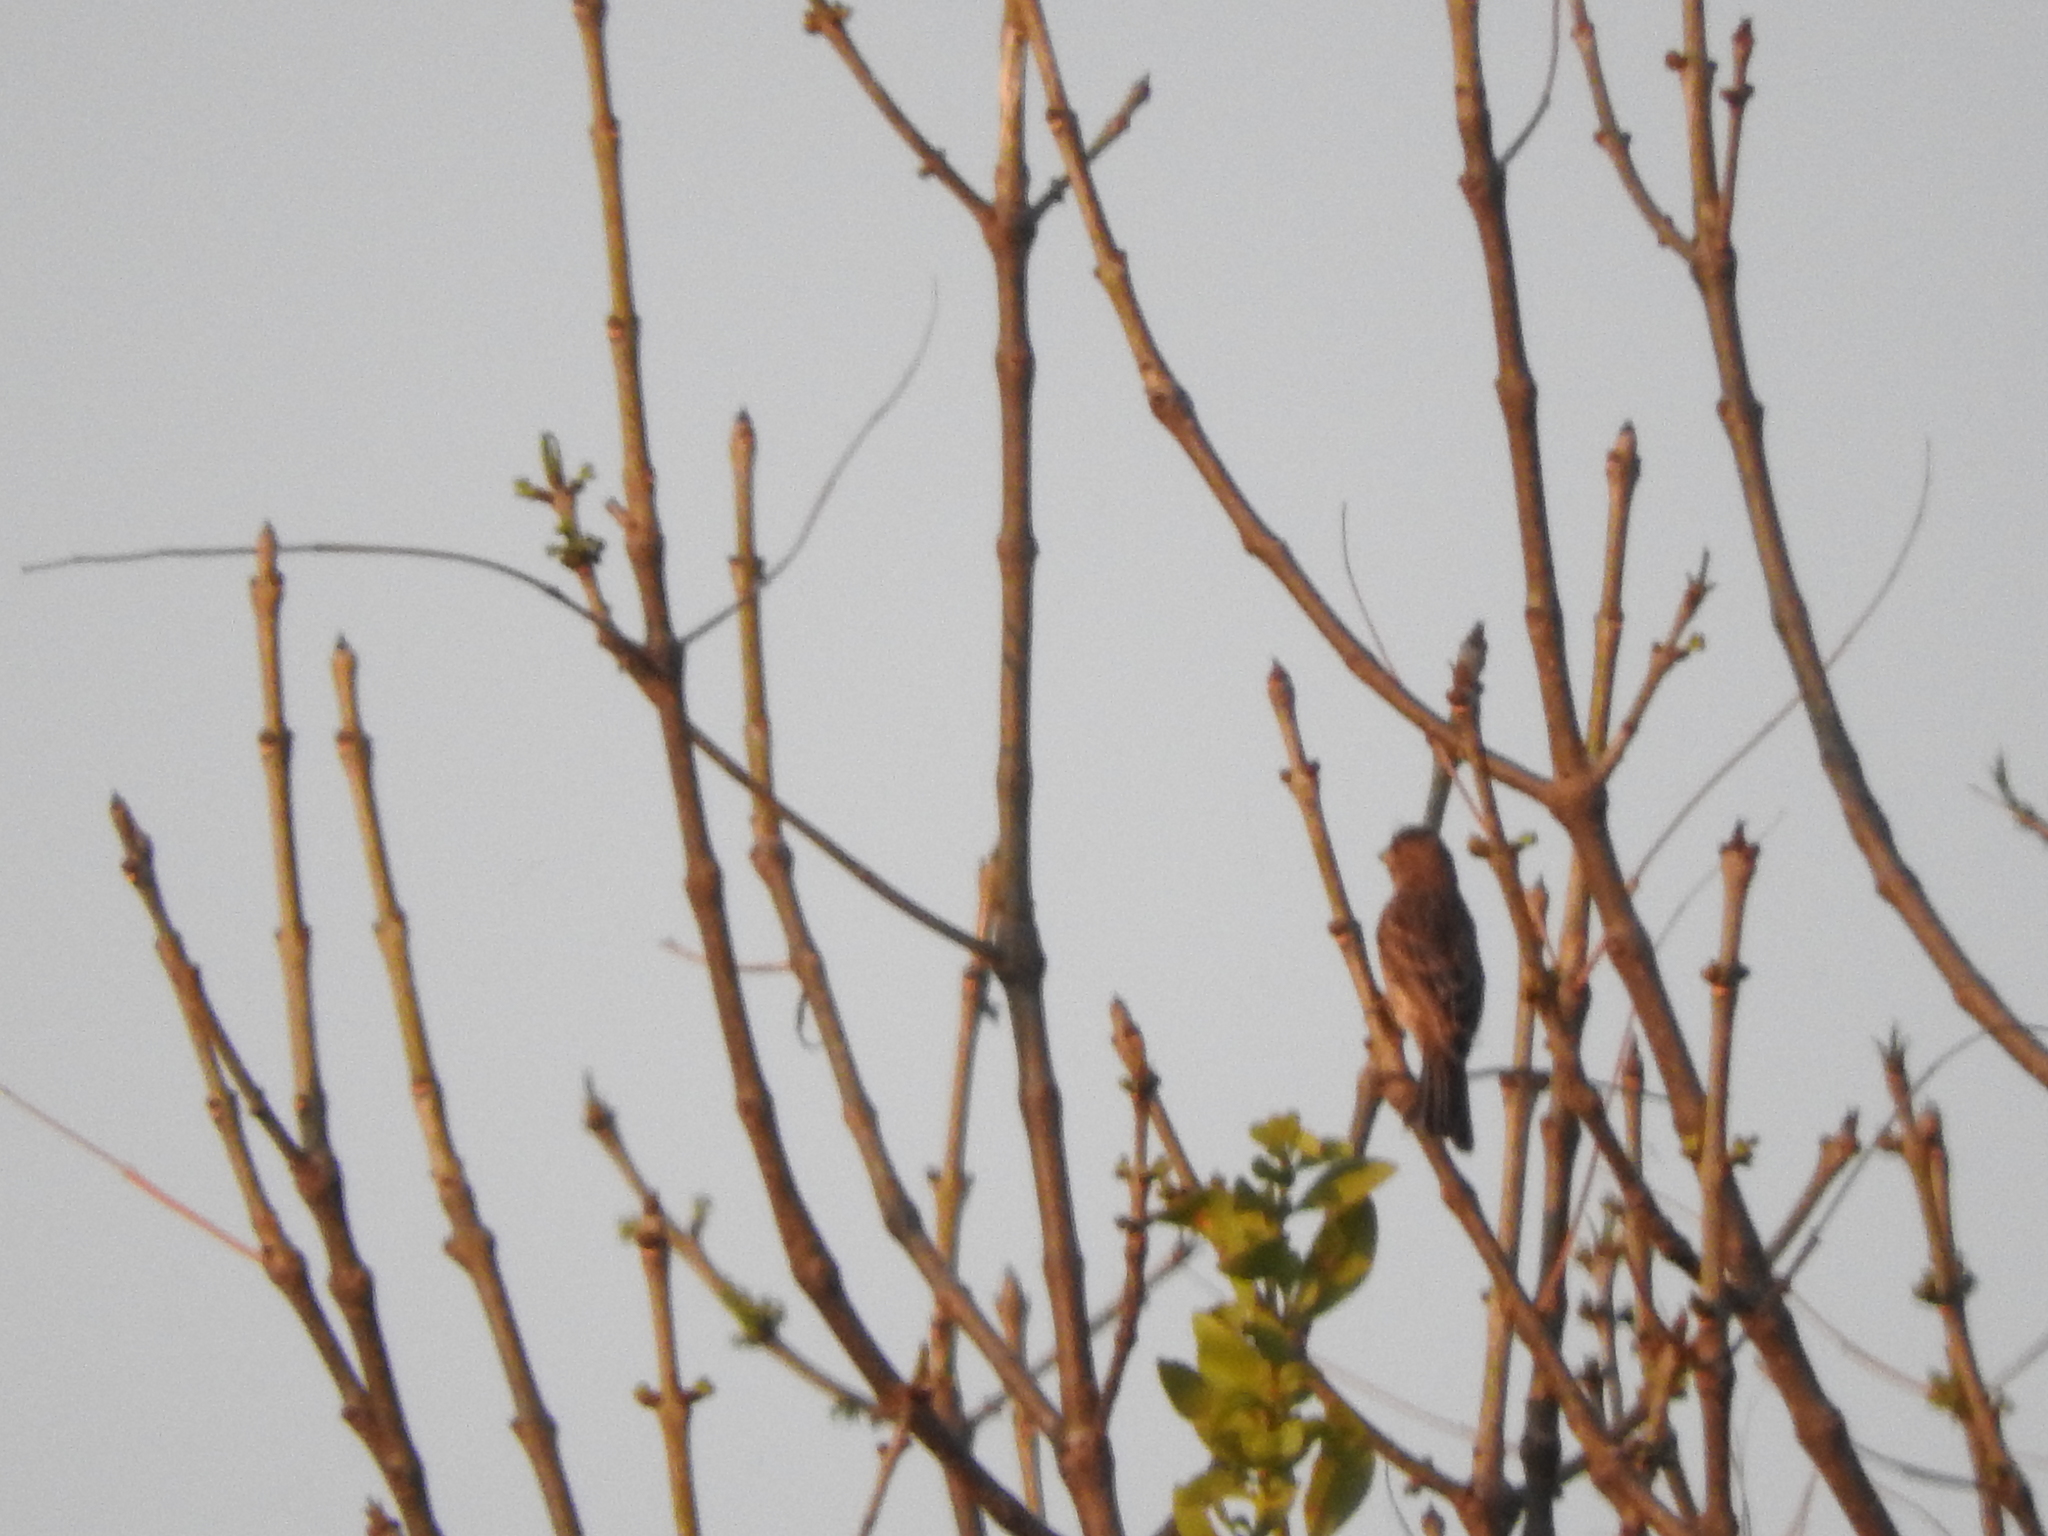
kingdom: Animalia
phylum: Chordata
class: Aves
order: Passeriformes
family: Fringillidae
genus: Haemorhous
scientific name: Haemorhous mexicanus
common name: House finch
